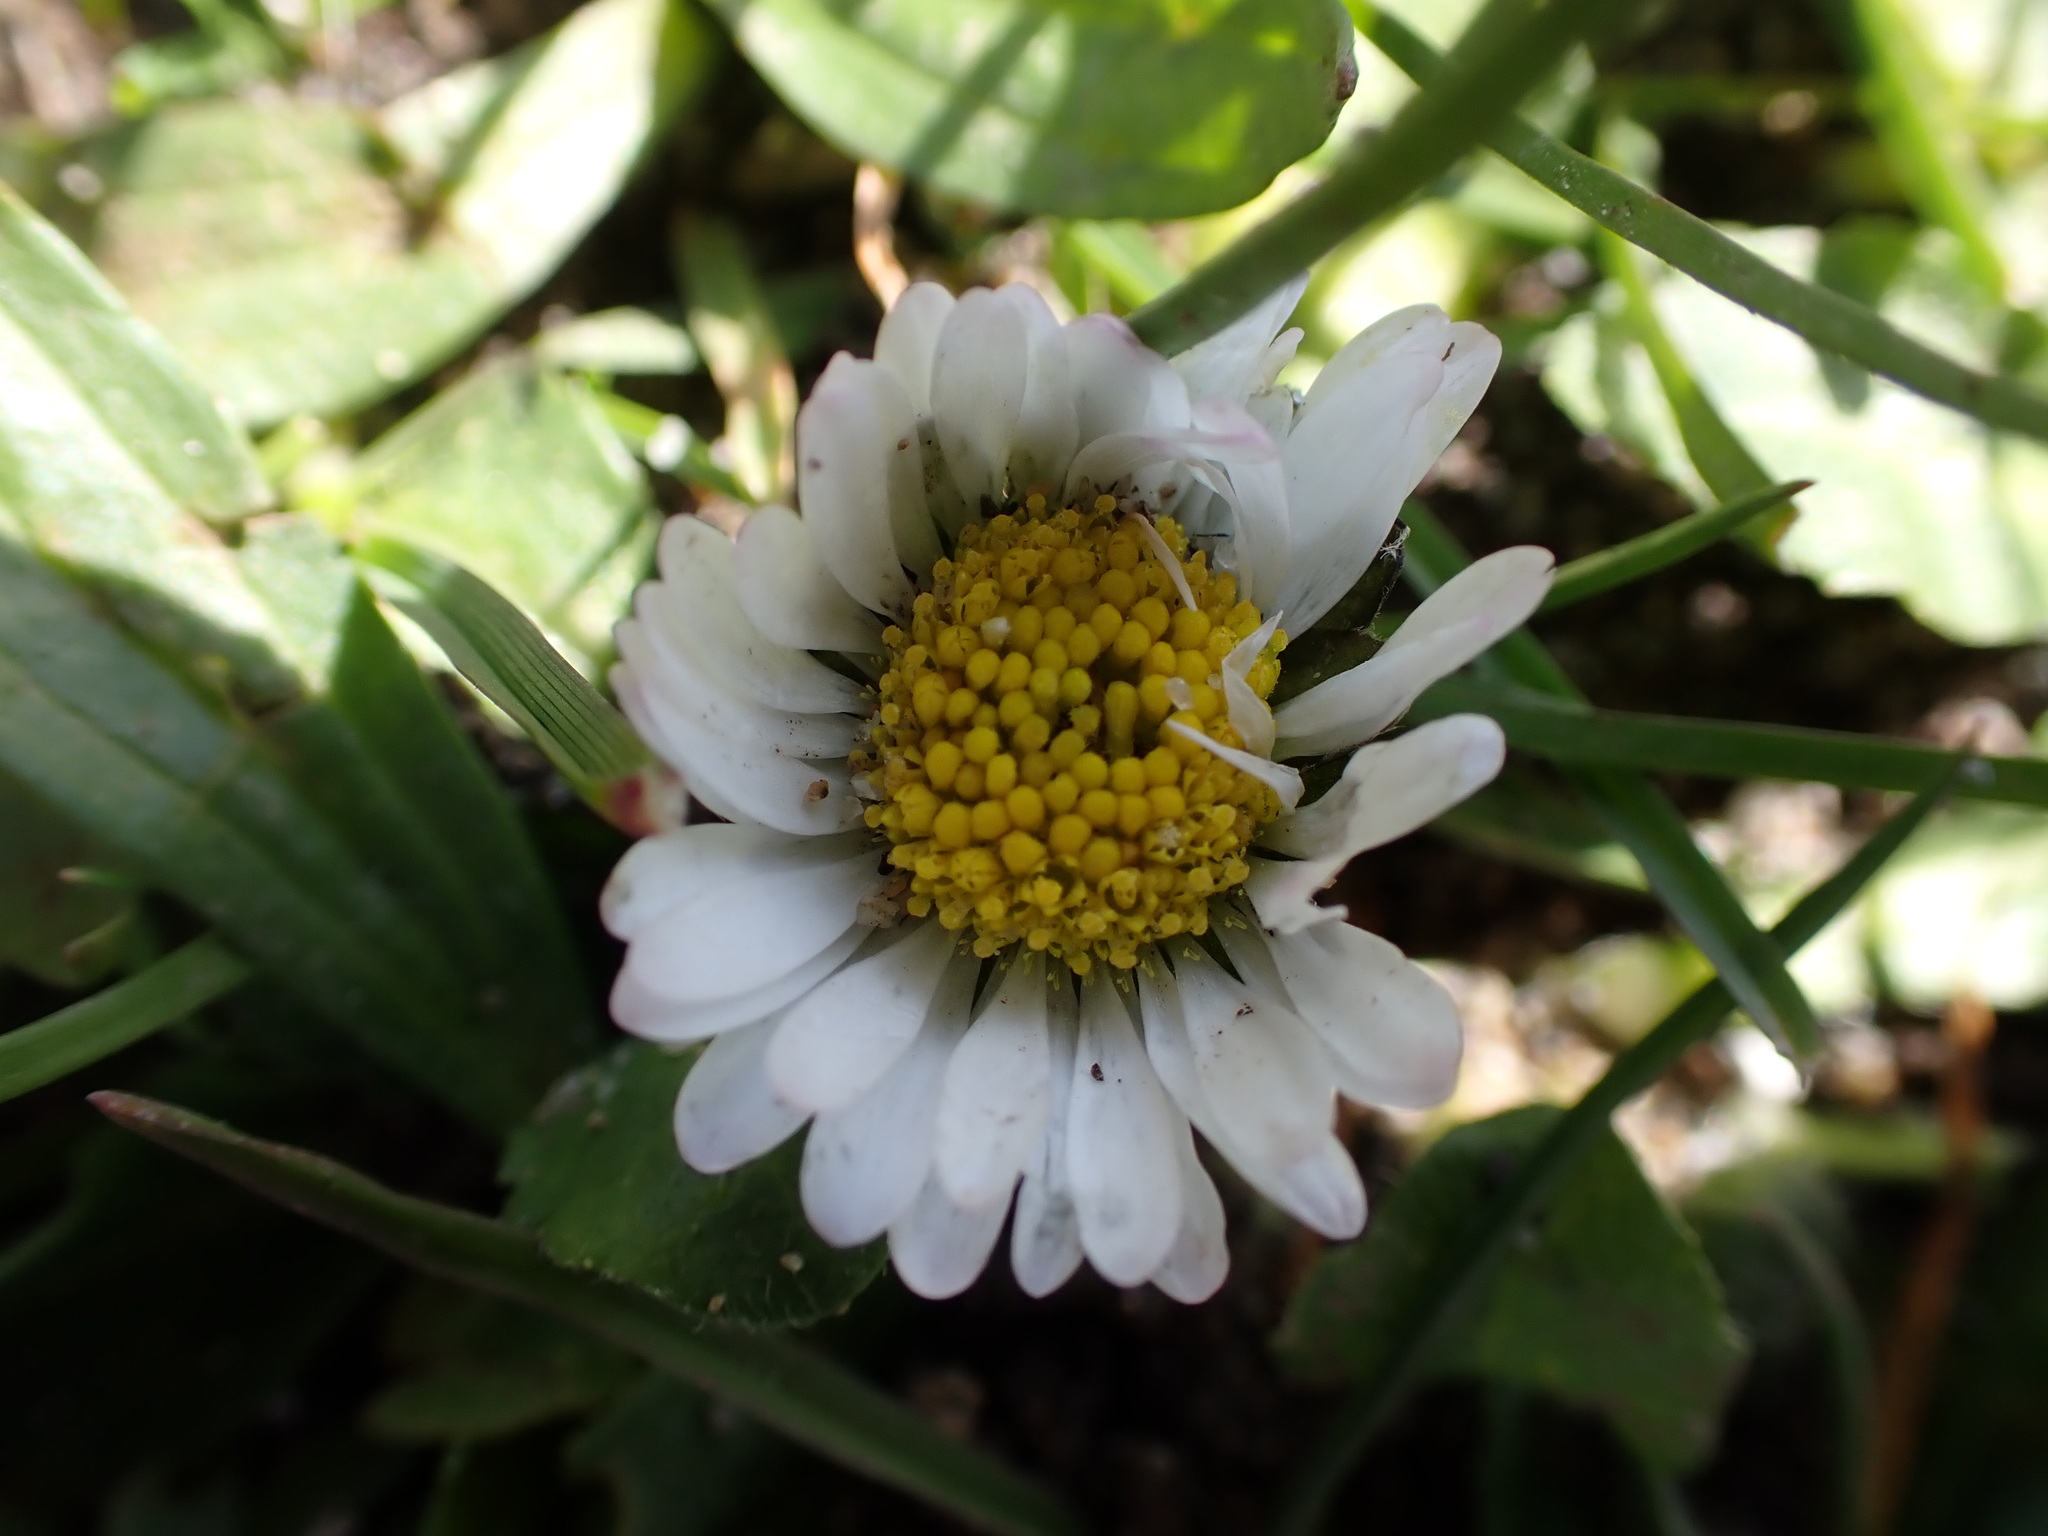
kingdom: Plantae
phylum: Tracheophyta
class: Magnoliopsida
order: Asterales
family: Asteraceae
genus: Bellis
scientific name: Bellis perennis
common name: Lawndaisy
